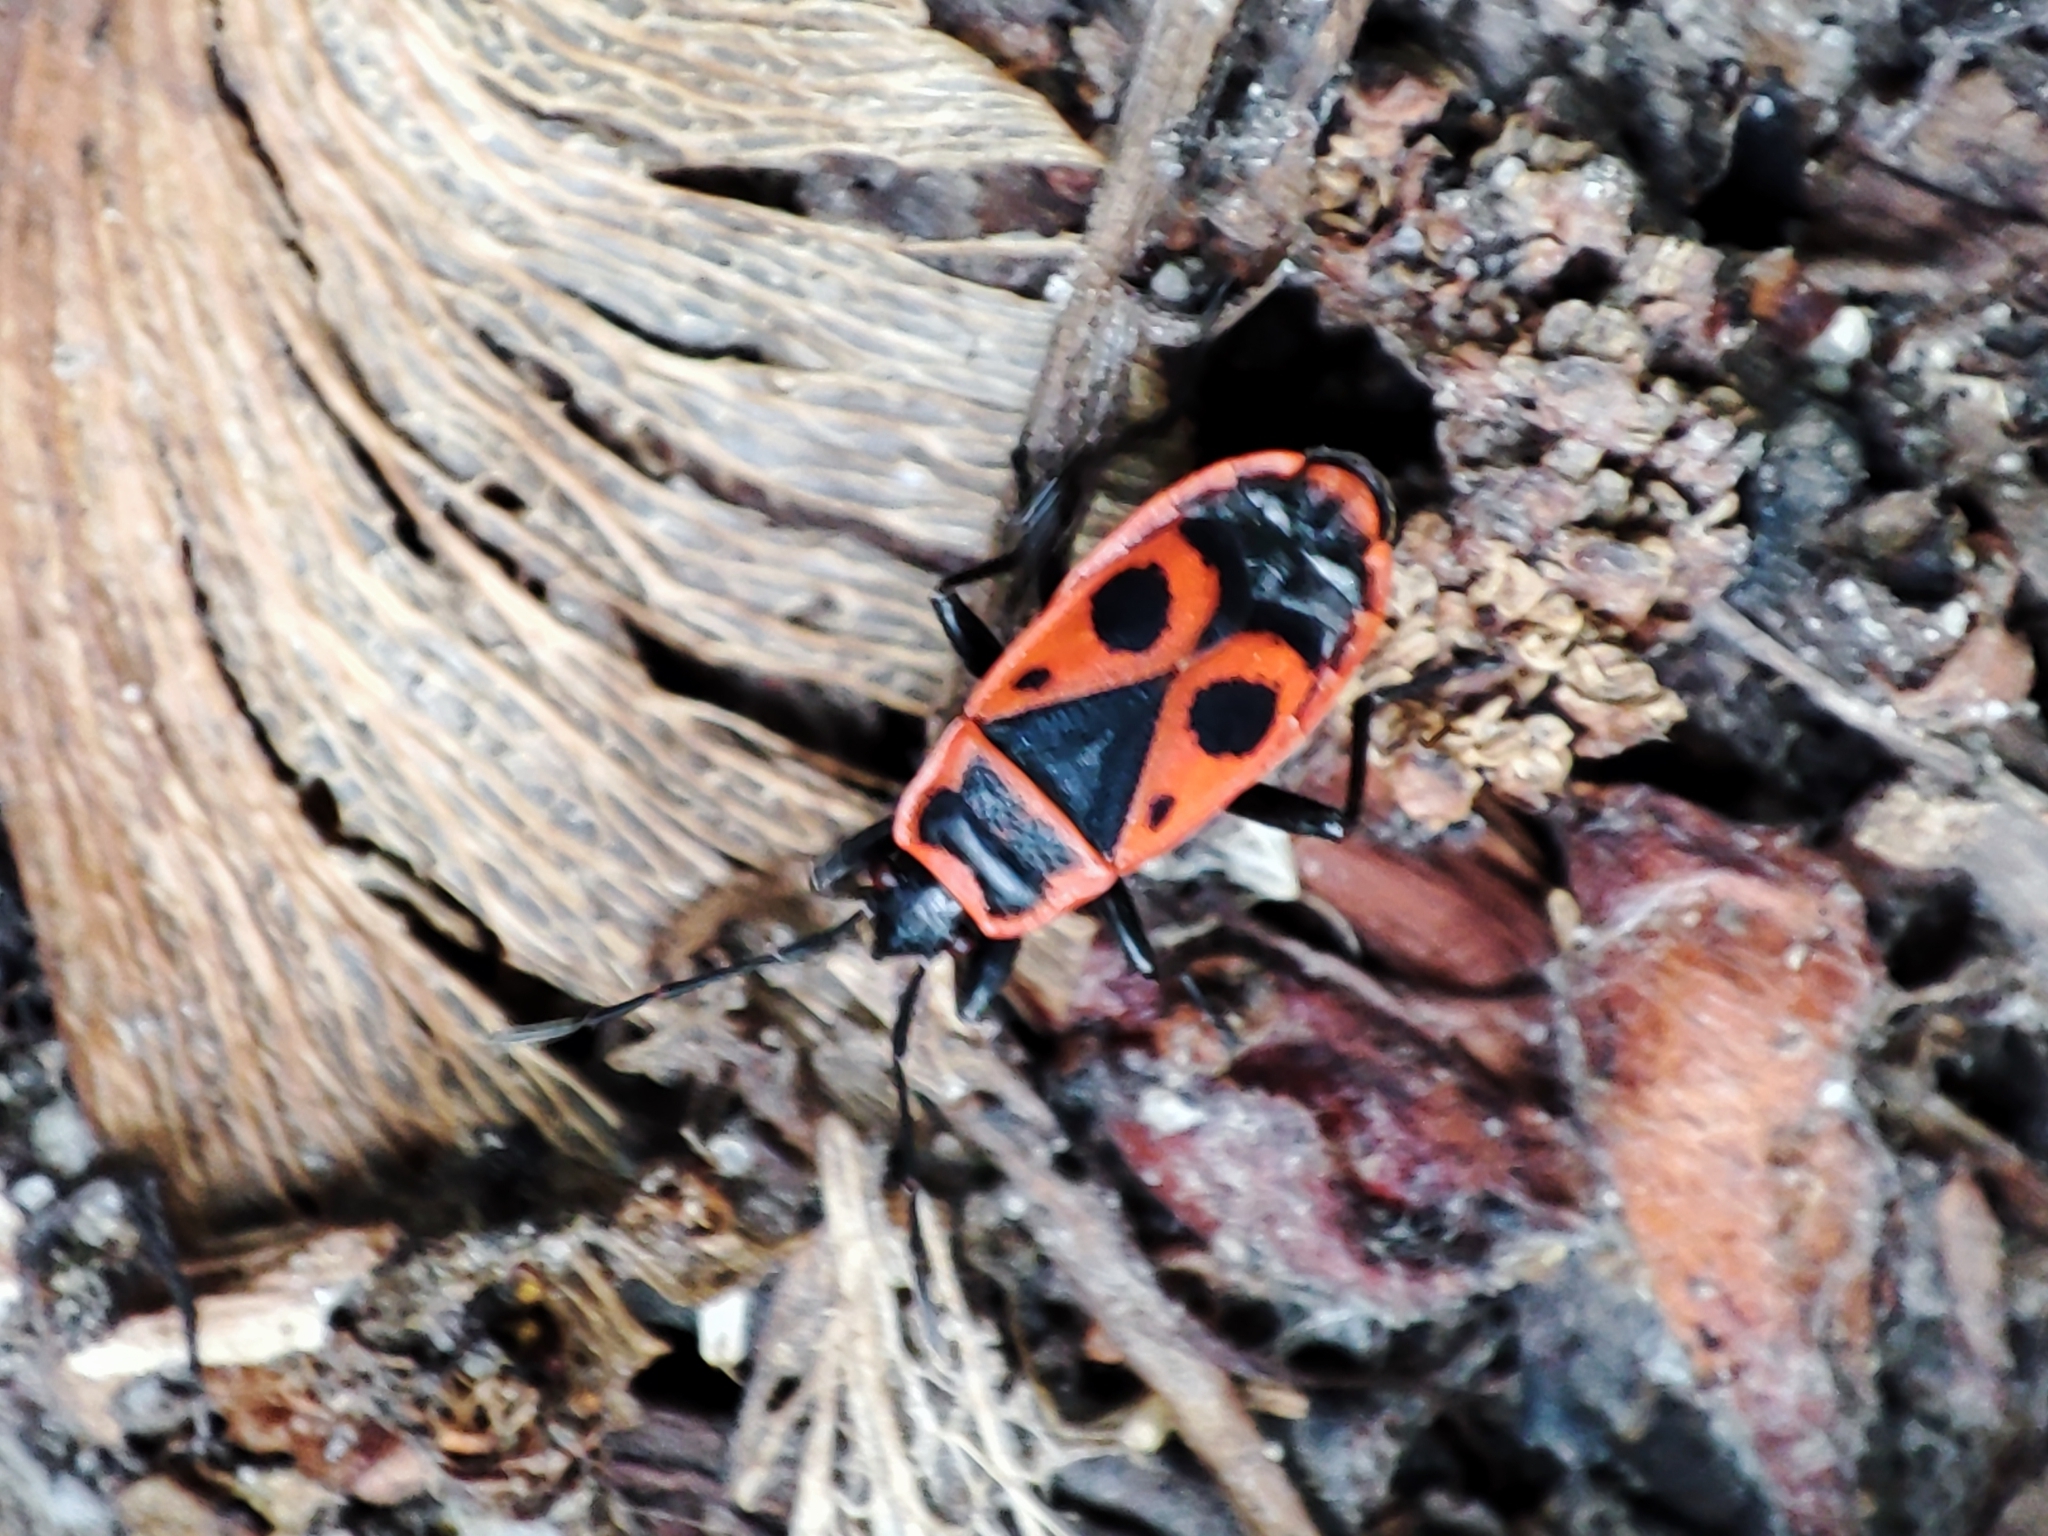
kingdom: Animalia
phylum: Arthropoda
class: Insecta
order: Hemiptera
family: Pyrrhocoridae
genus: Pyrrhocoris
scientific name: Pyrrhocoris apterus
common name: Firebug
